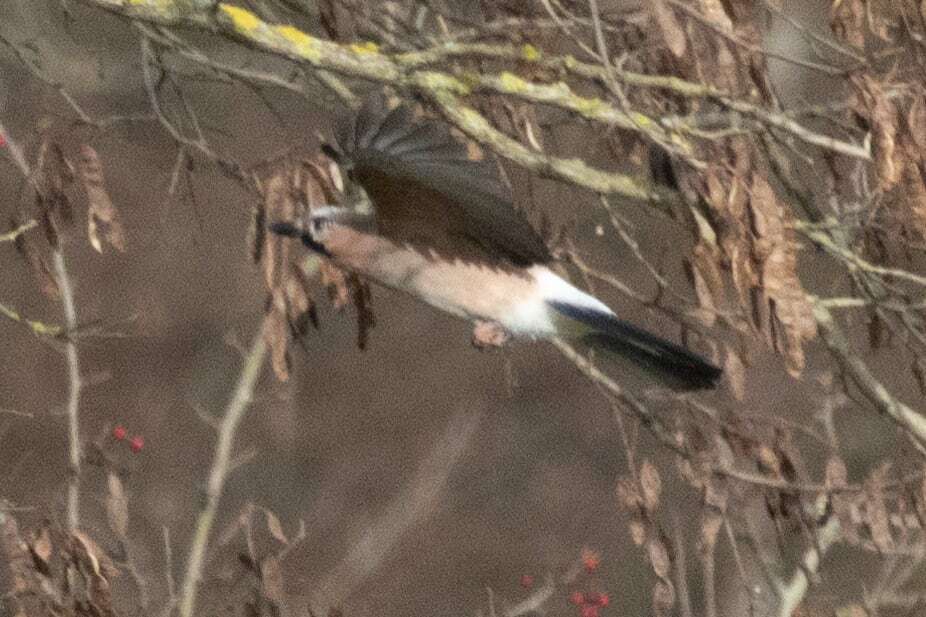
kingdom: Animalia
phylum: Chordata
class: Aves
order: Passeriformes
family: Corvidae
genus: Garrulus
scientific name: Garrulus glandarius
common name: Eurasian jay
